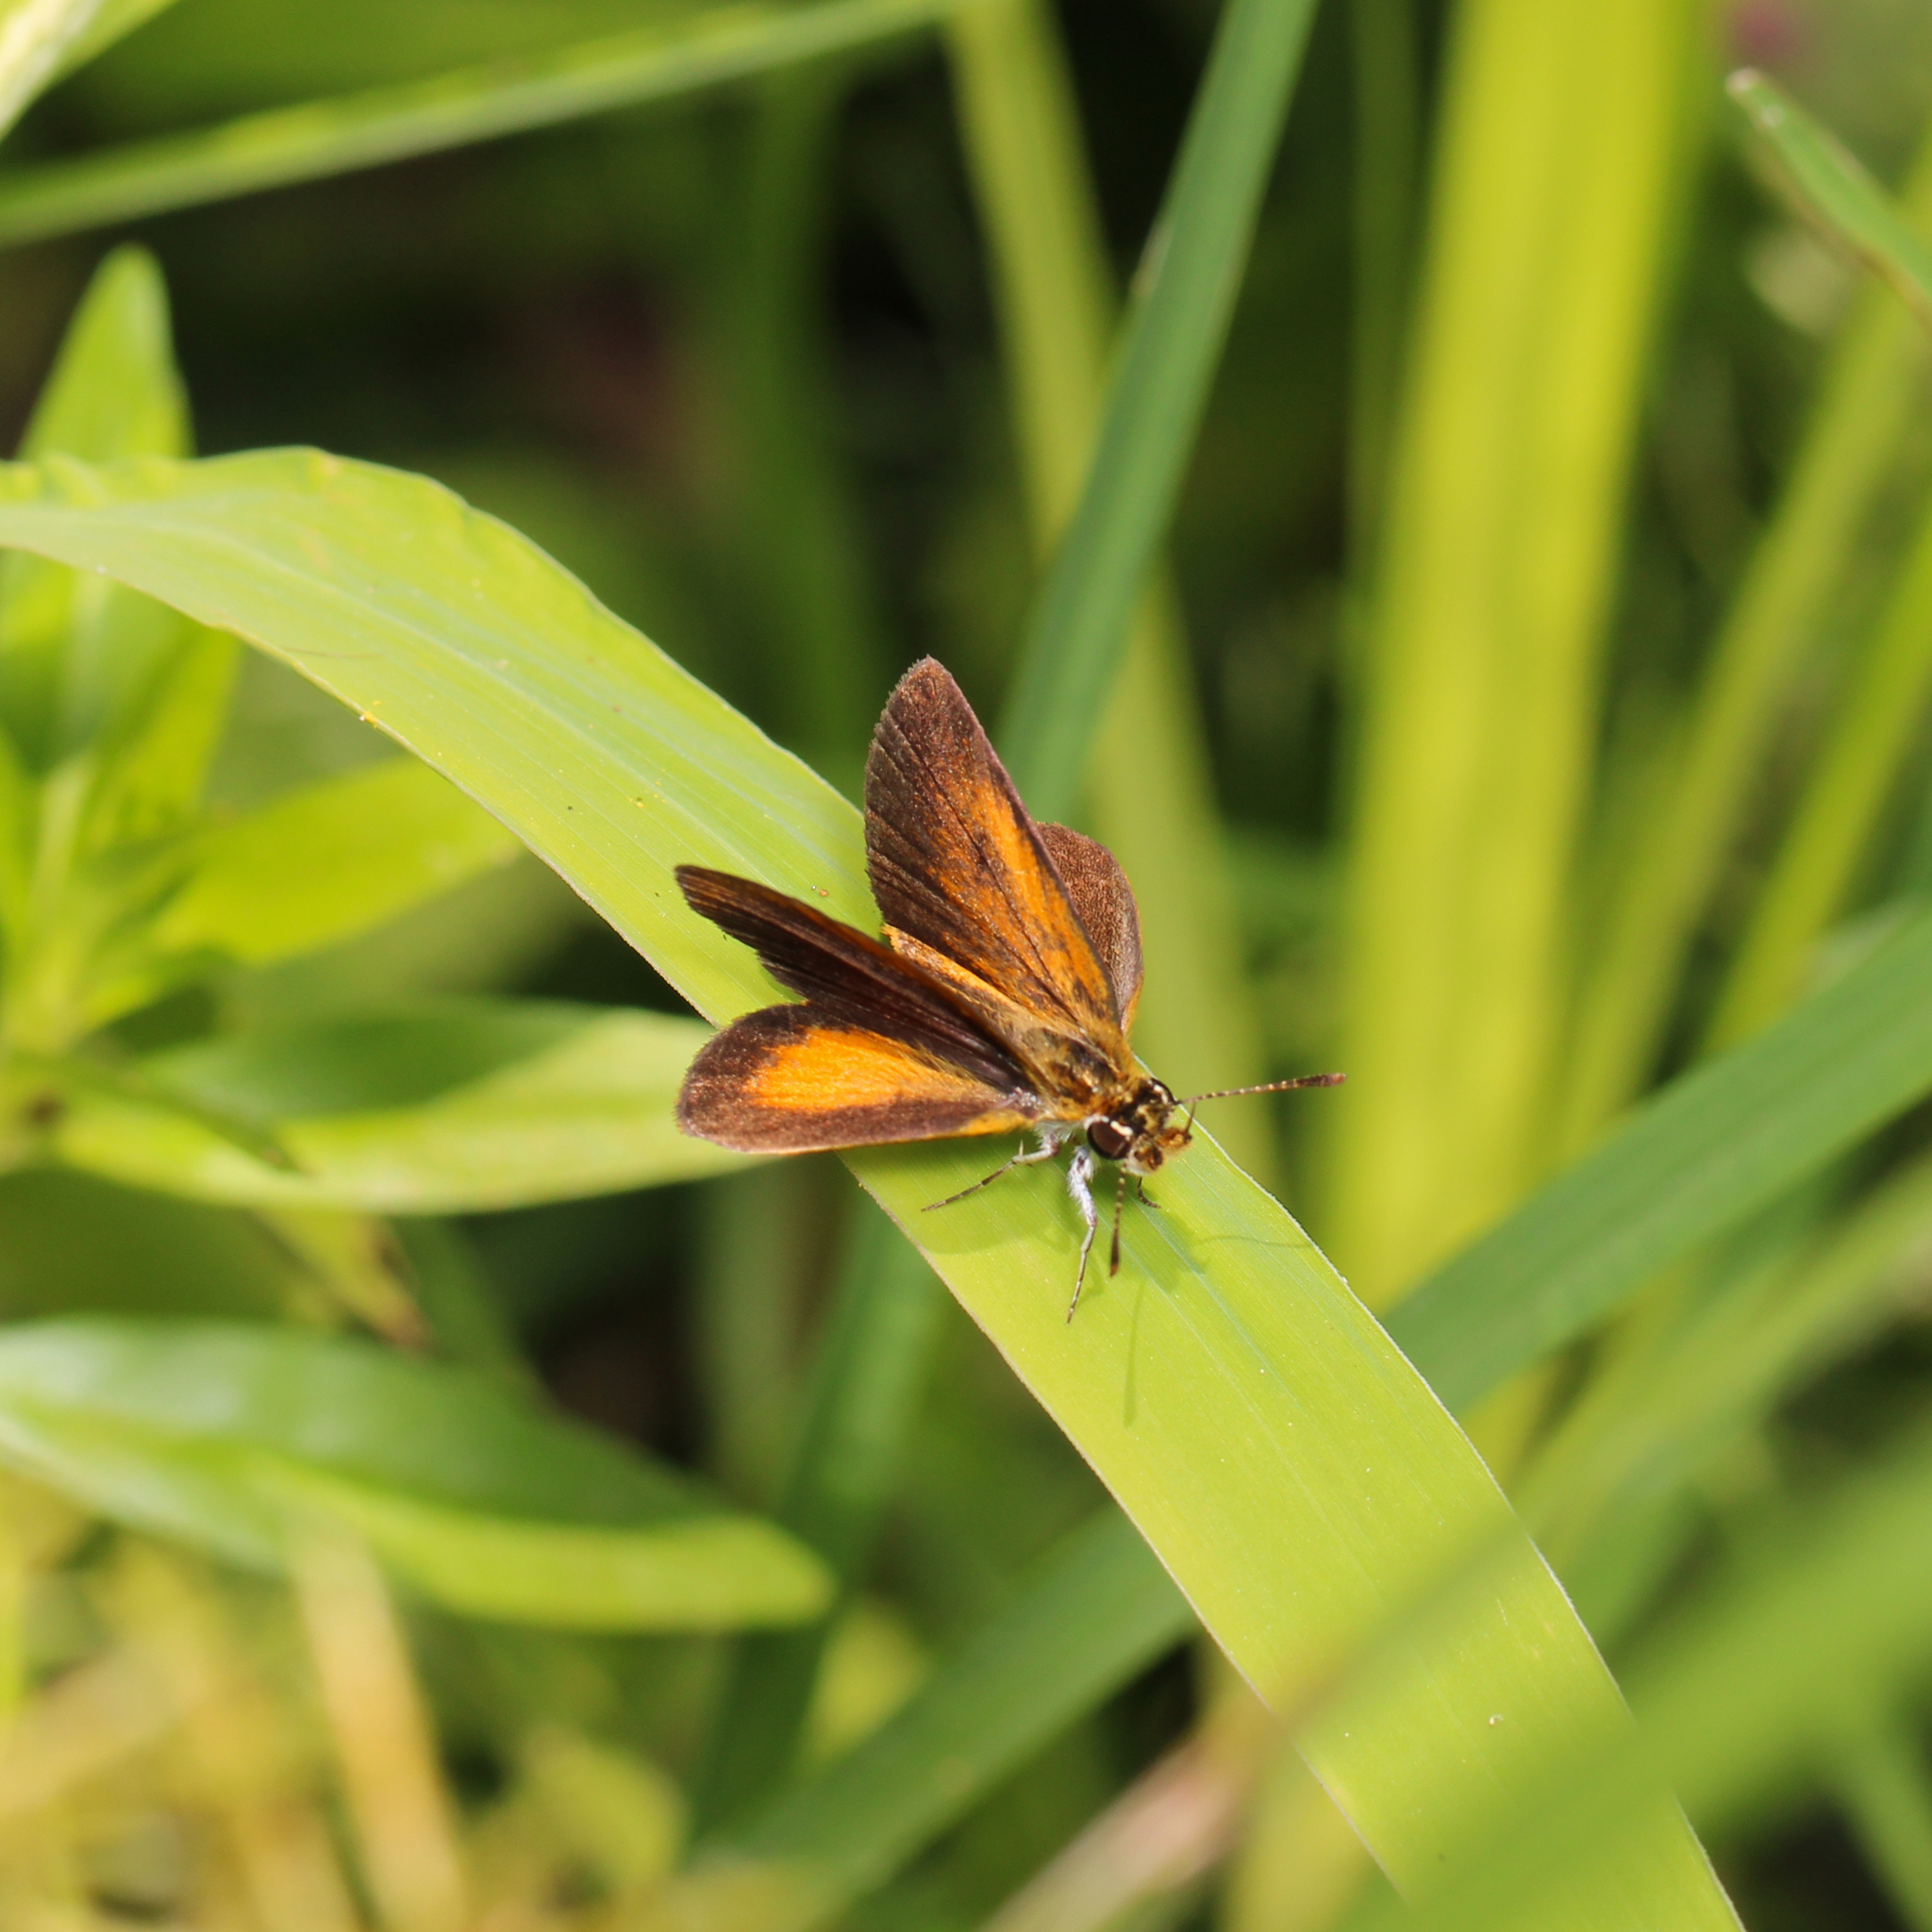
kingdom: Animalia
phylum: Arthropoda
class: Insecta
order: Lepidoptera
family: Hesperiidae
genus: Ancyloxypha
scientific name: Ancyloxypha numitor
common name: Least skipper
